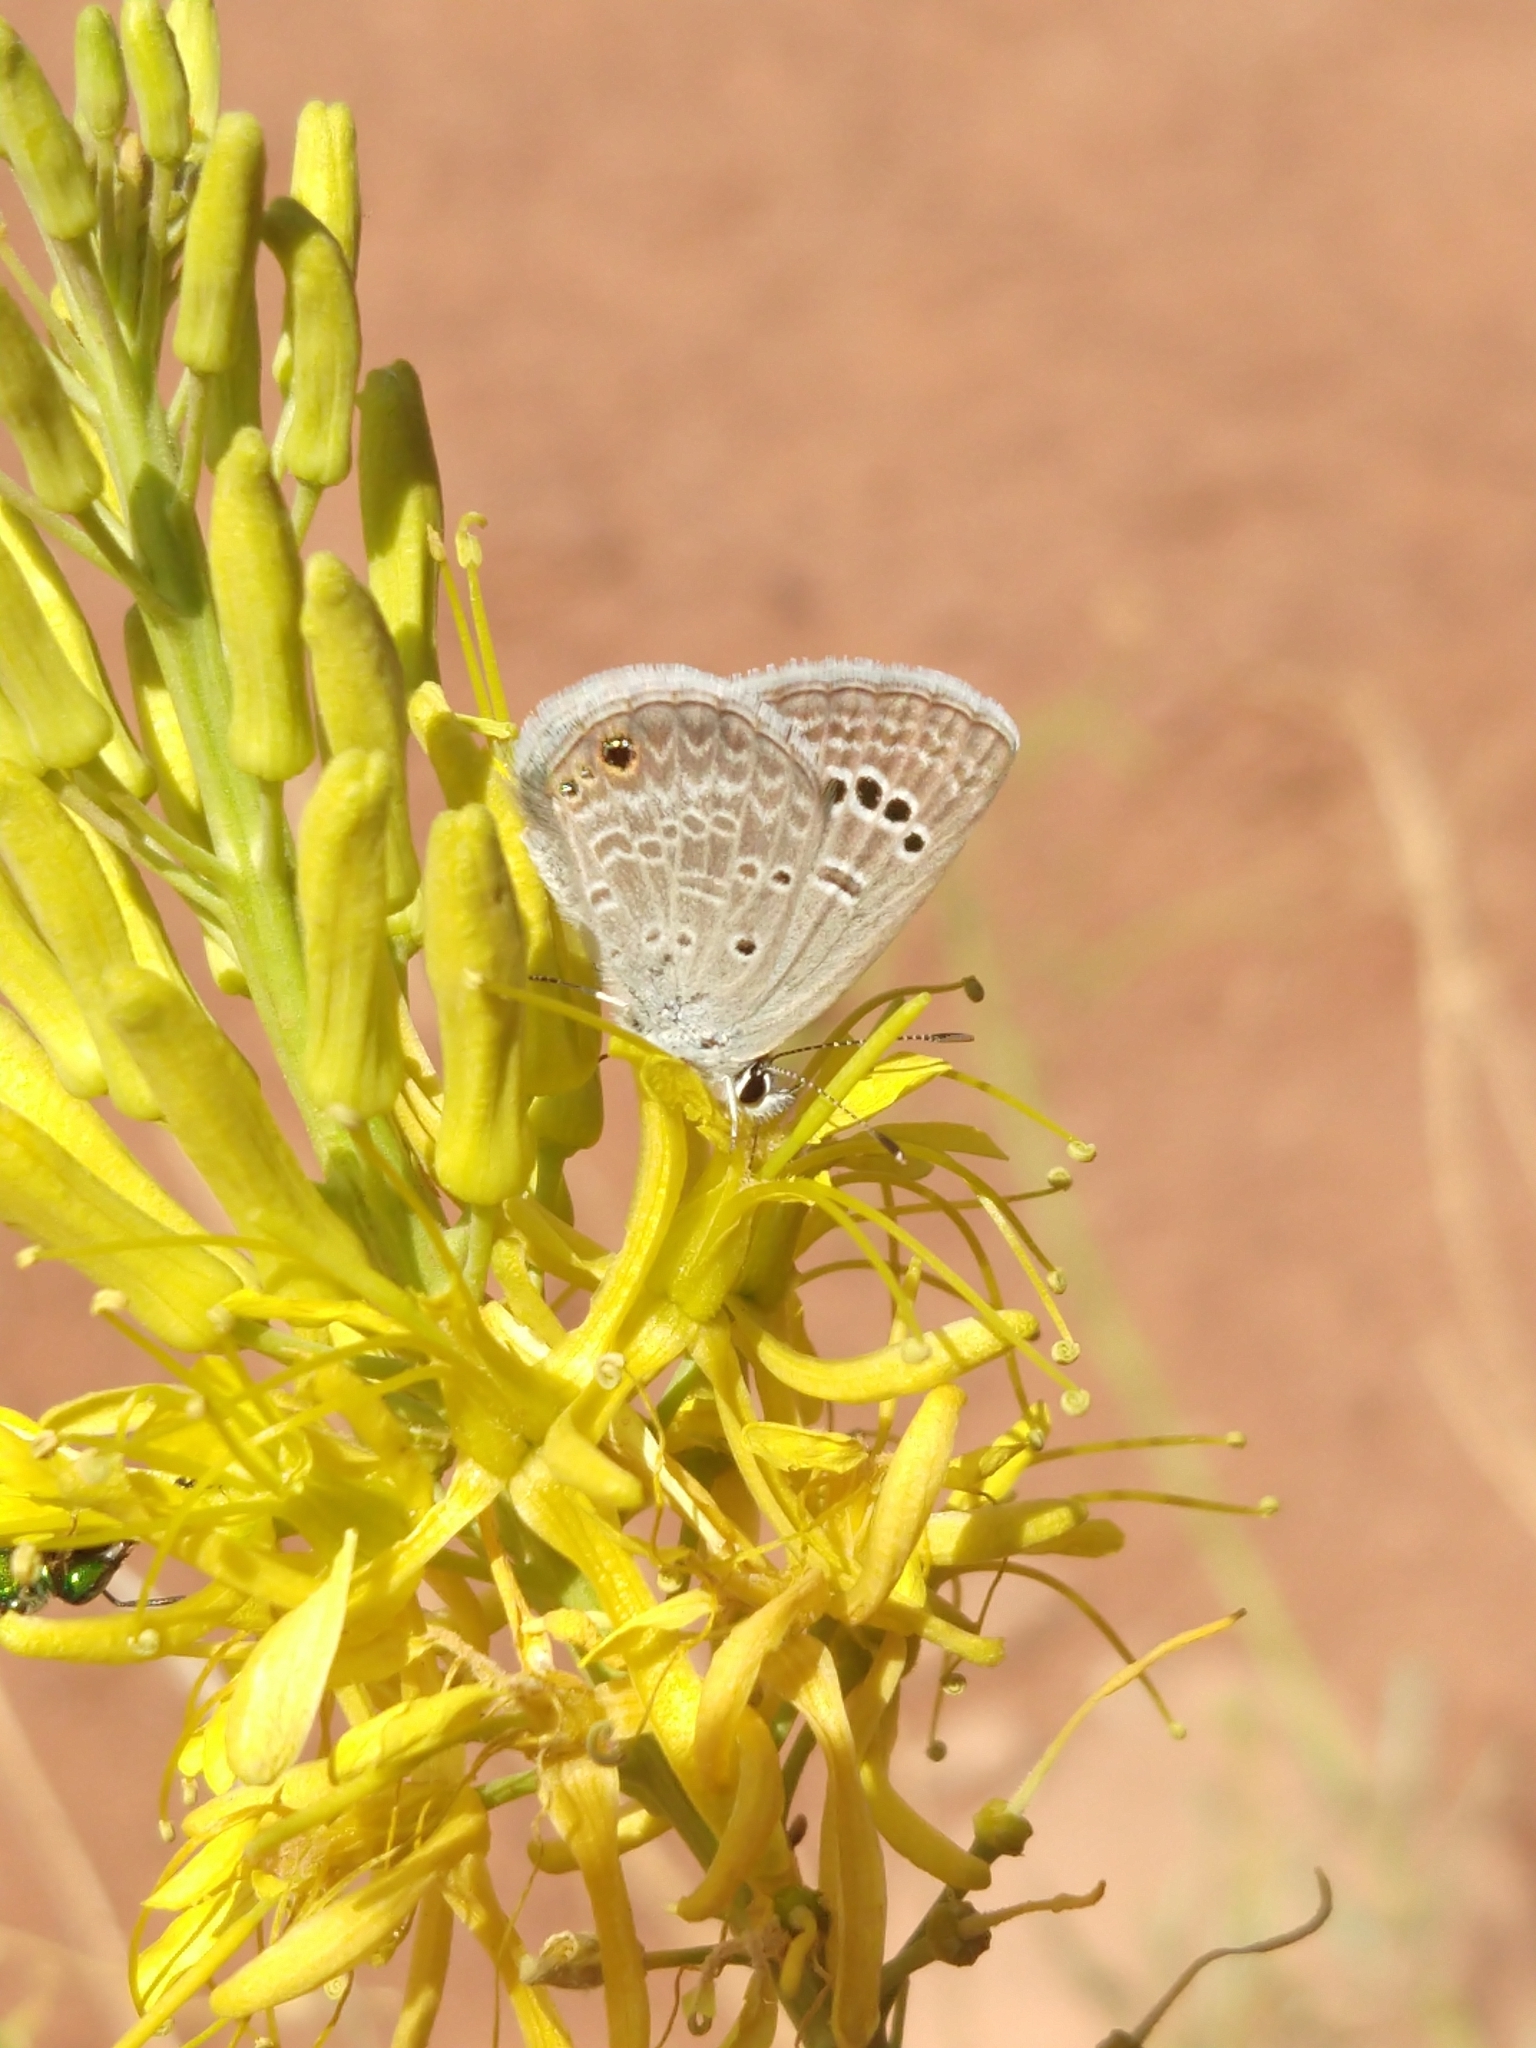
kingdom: Animalia
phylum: Arthropoda
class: Insecta
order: Lepidoptera
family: Lycaenidae
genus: Echinargus
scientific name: Echinargus isola
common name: Reakirt's blue
